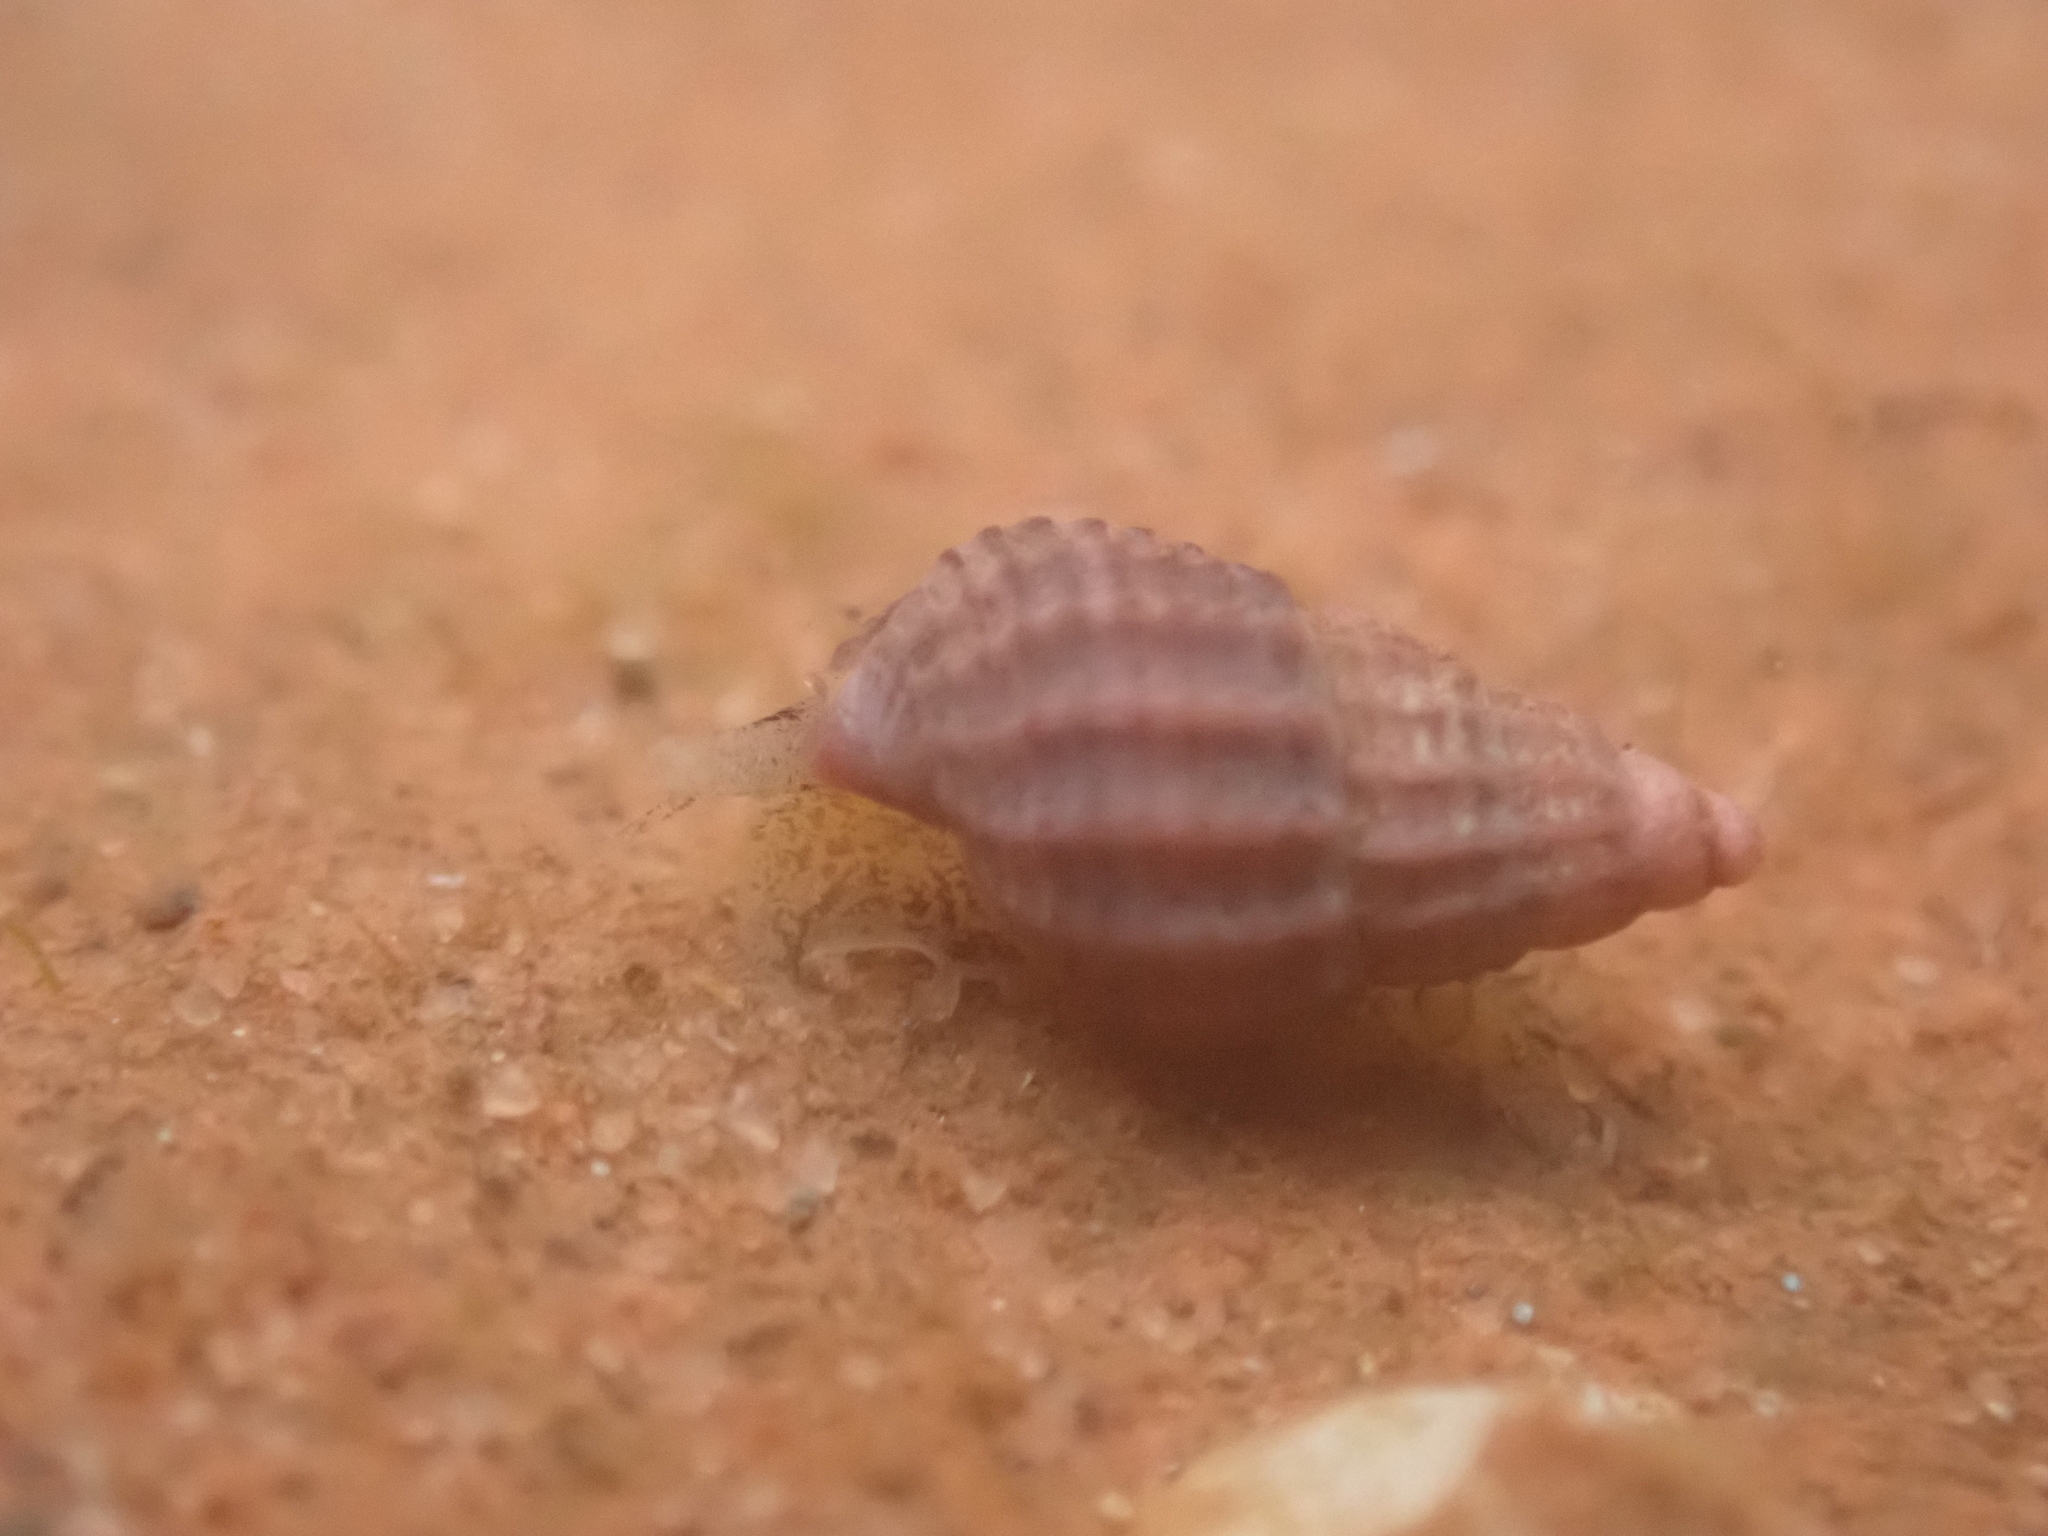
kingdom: Animalia
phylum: Mollusca
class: Gastropoda
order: Neogastropoda
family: Nassariidae
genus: Ilyanassa
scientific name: Ilyanassa trivittata
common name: Three-line mudsnail
